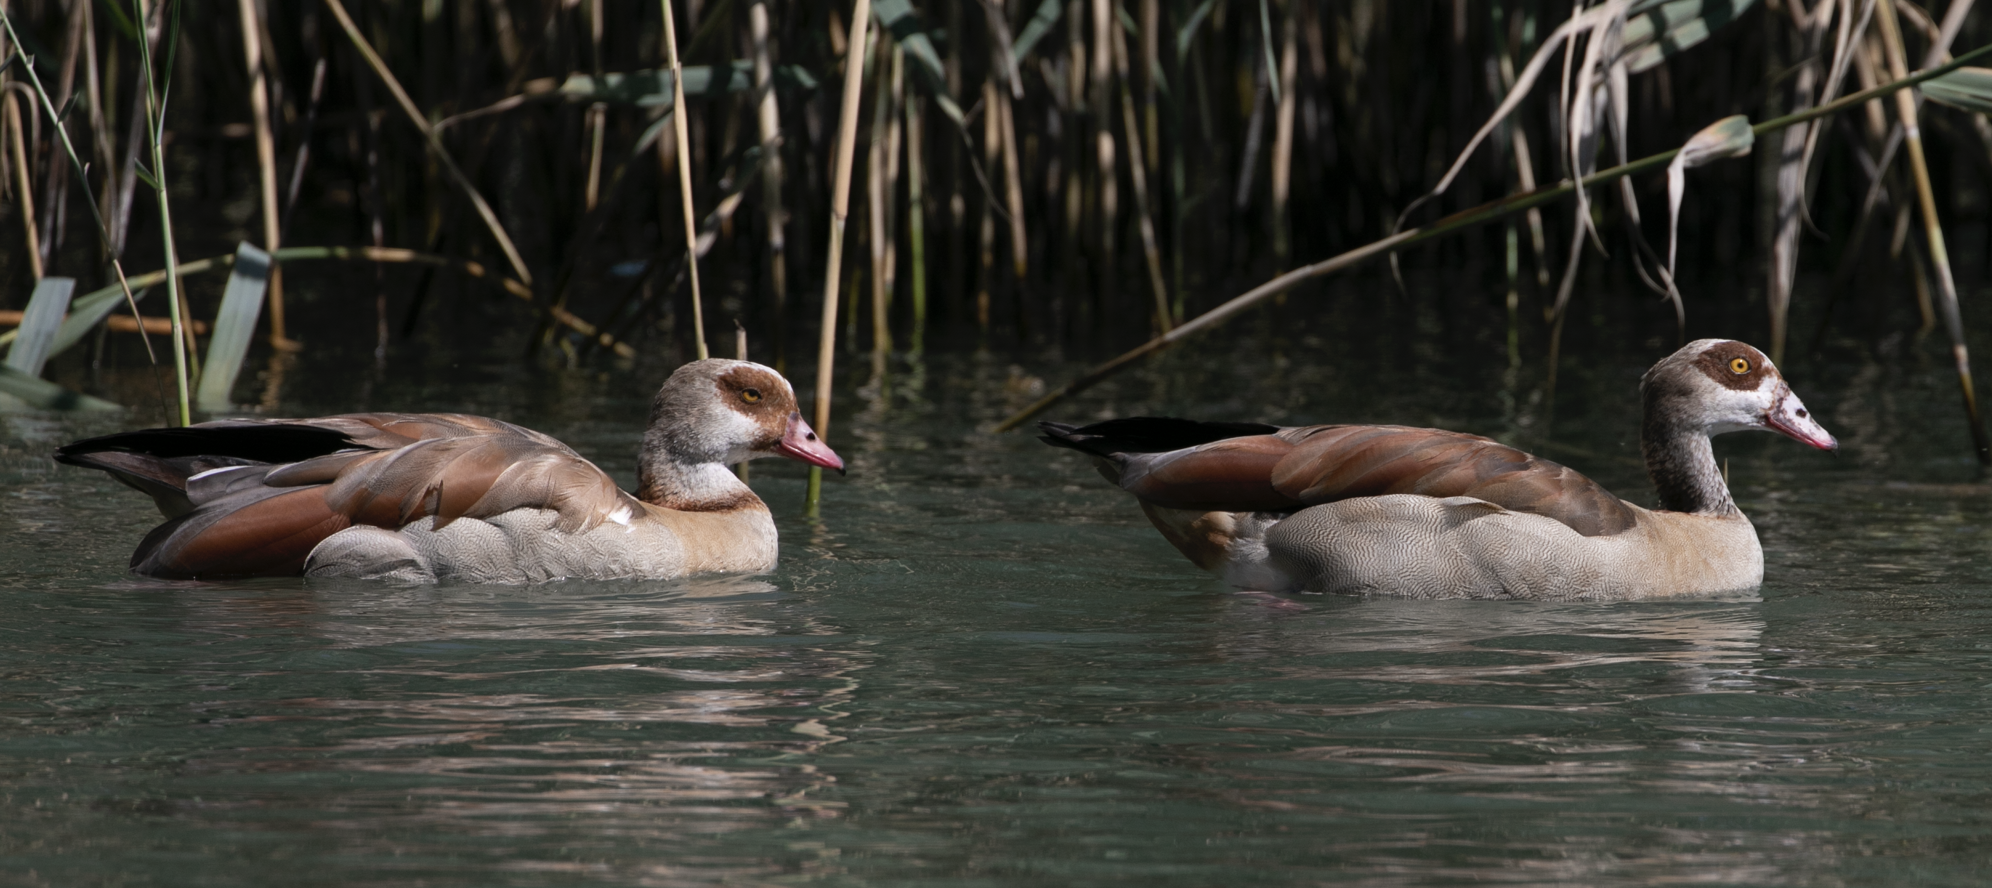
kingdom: Animalia
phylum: Chordata
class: Aves
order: Anseriformes
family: Anatidae
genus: Alopochen
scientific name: Alopochen aegyptiaca
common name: Egyptian goose
